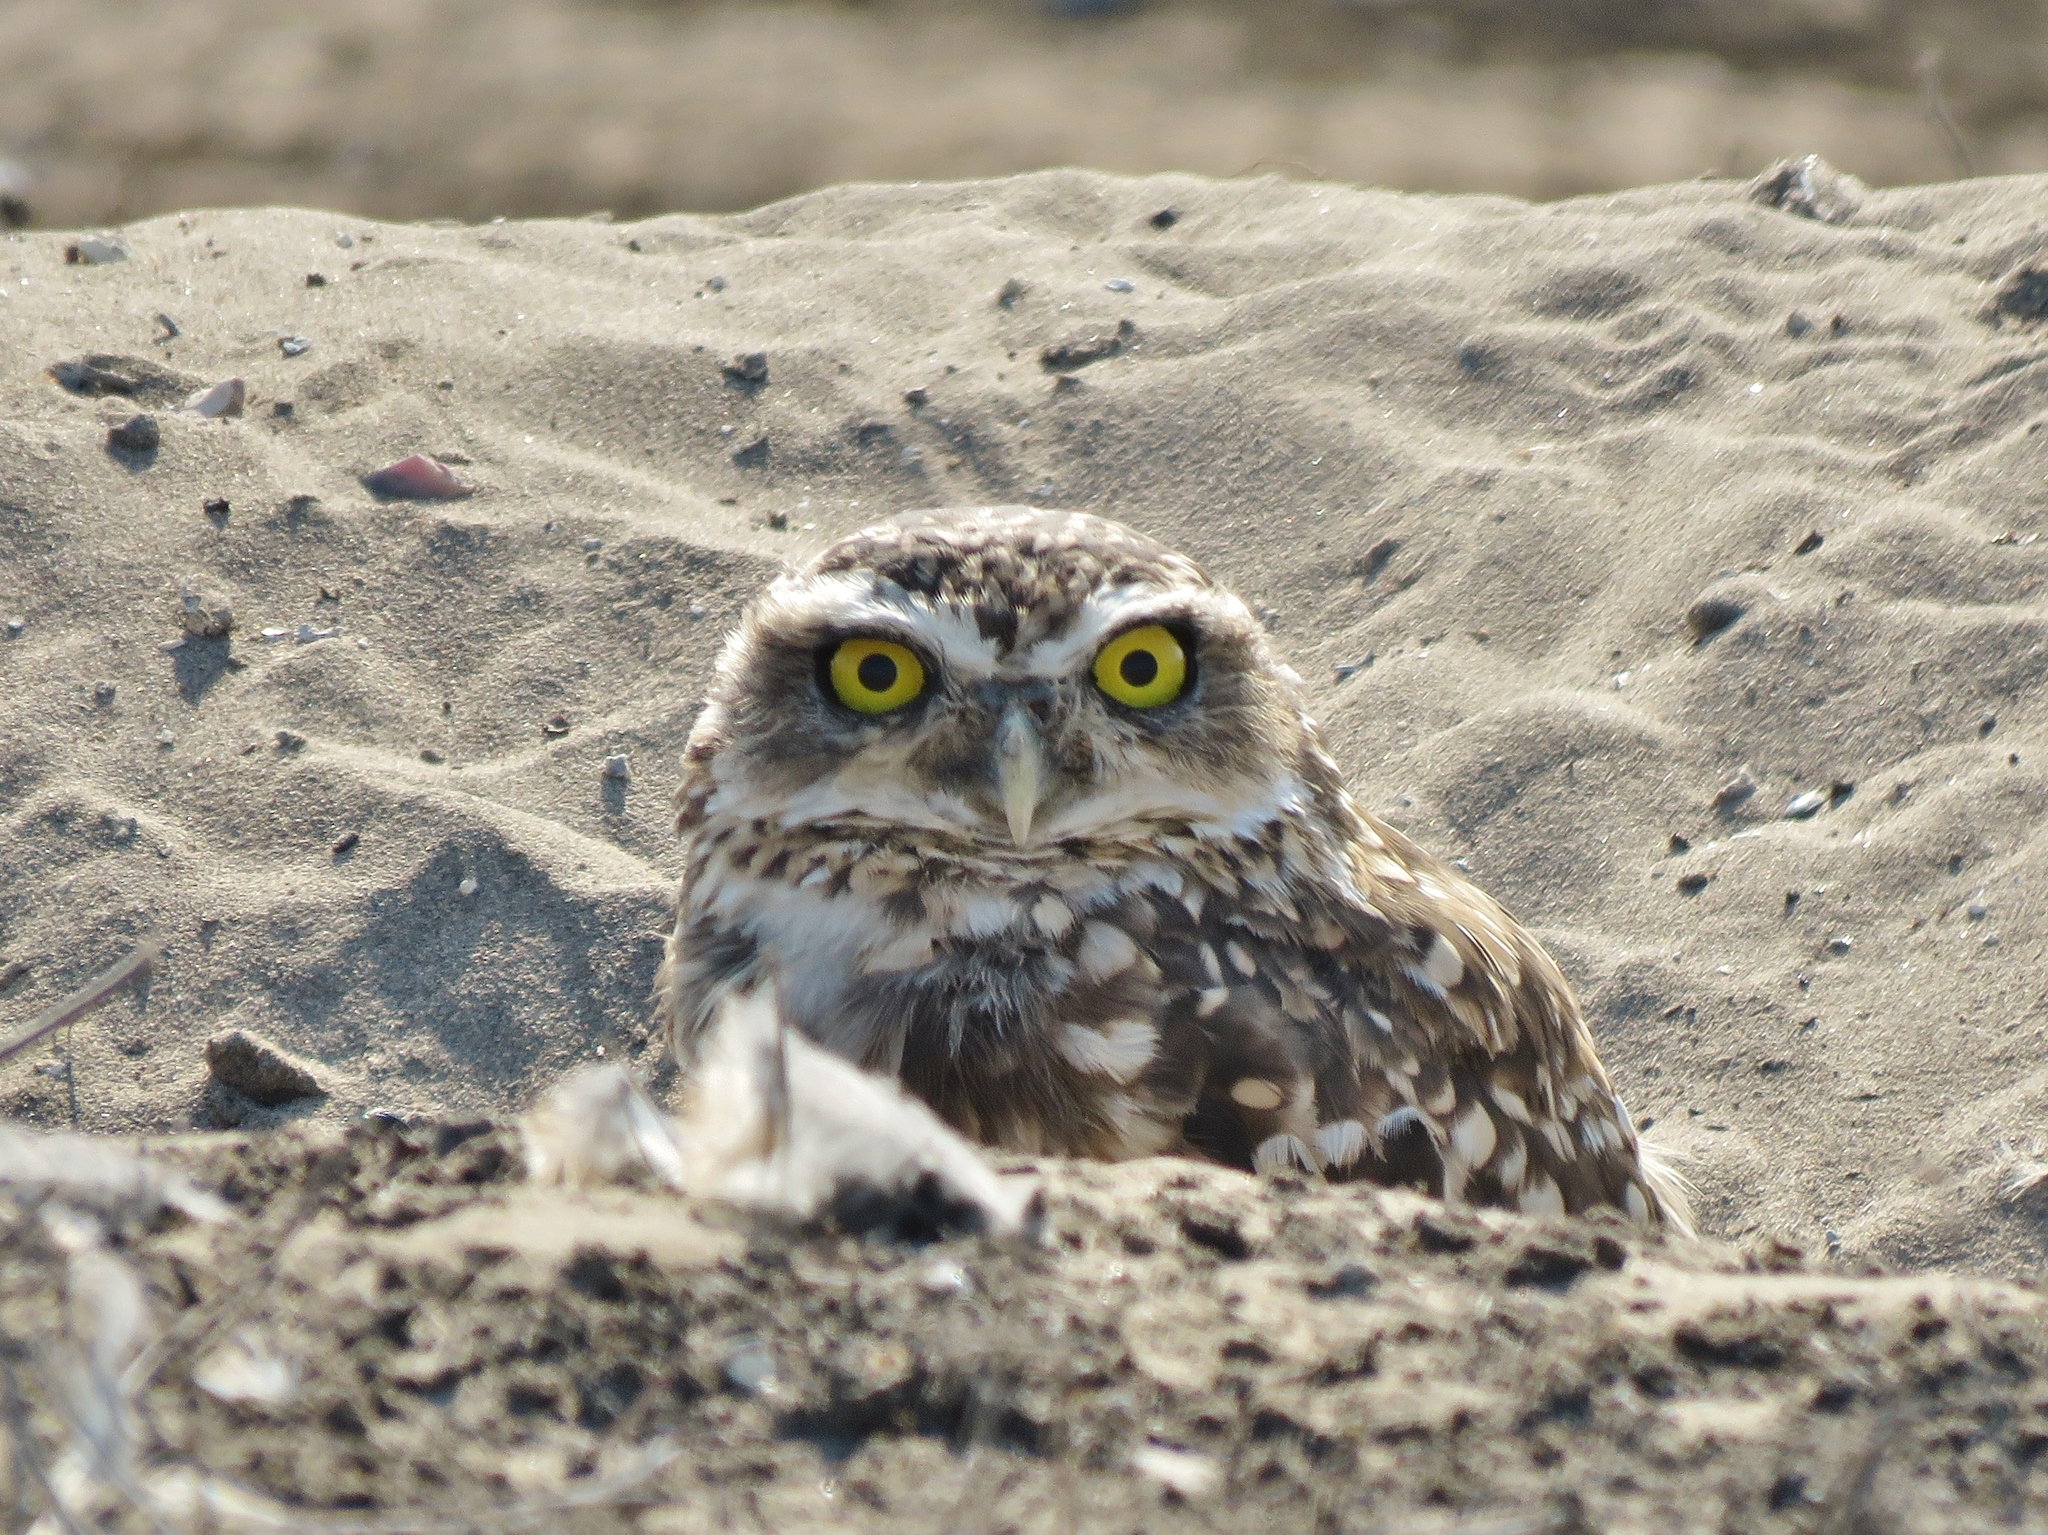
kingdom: Animalia
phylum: Chordata
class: Aves
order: Strigiformes
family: Strigidae
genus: Athene
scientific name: Athene cunicularia
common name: Burrowing owl
